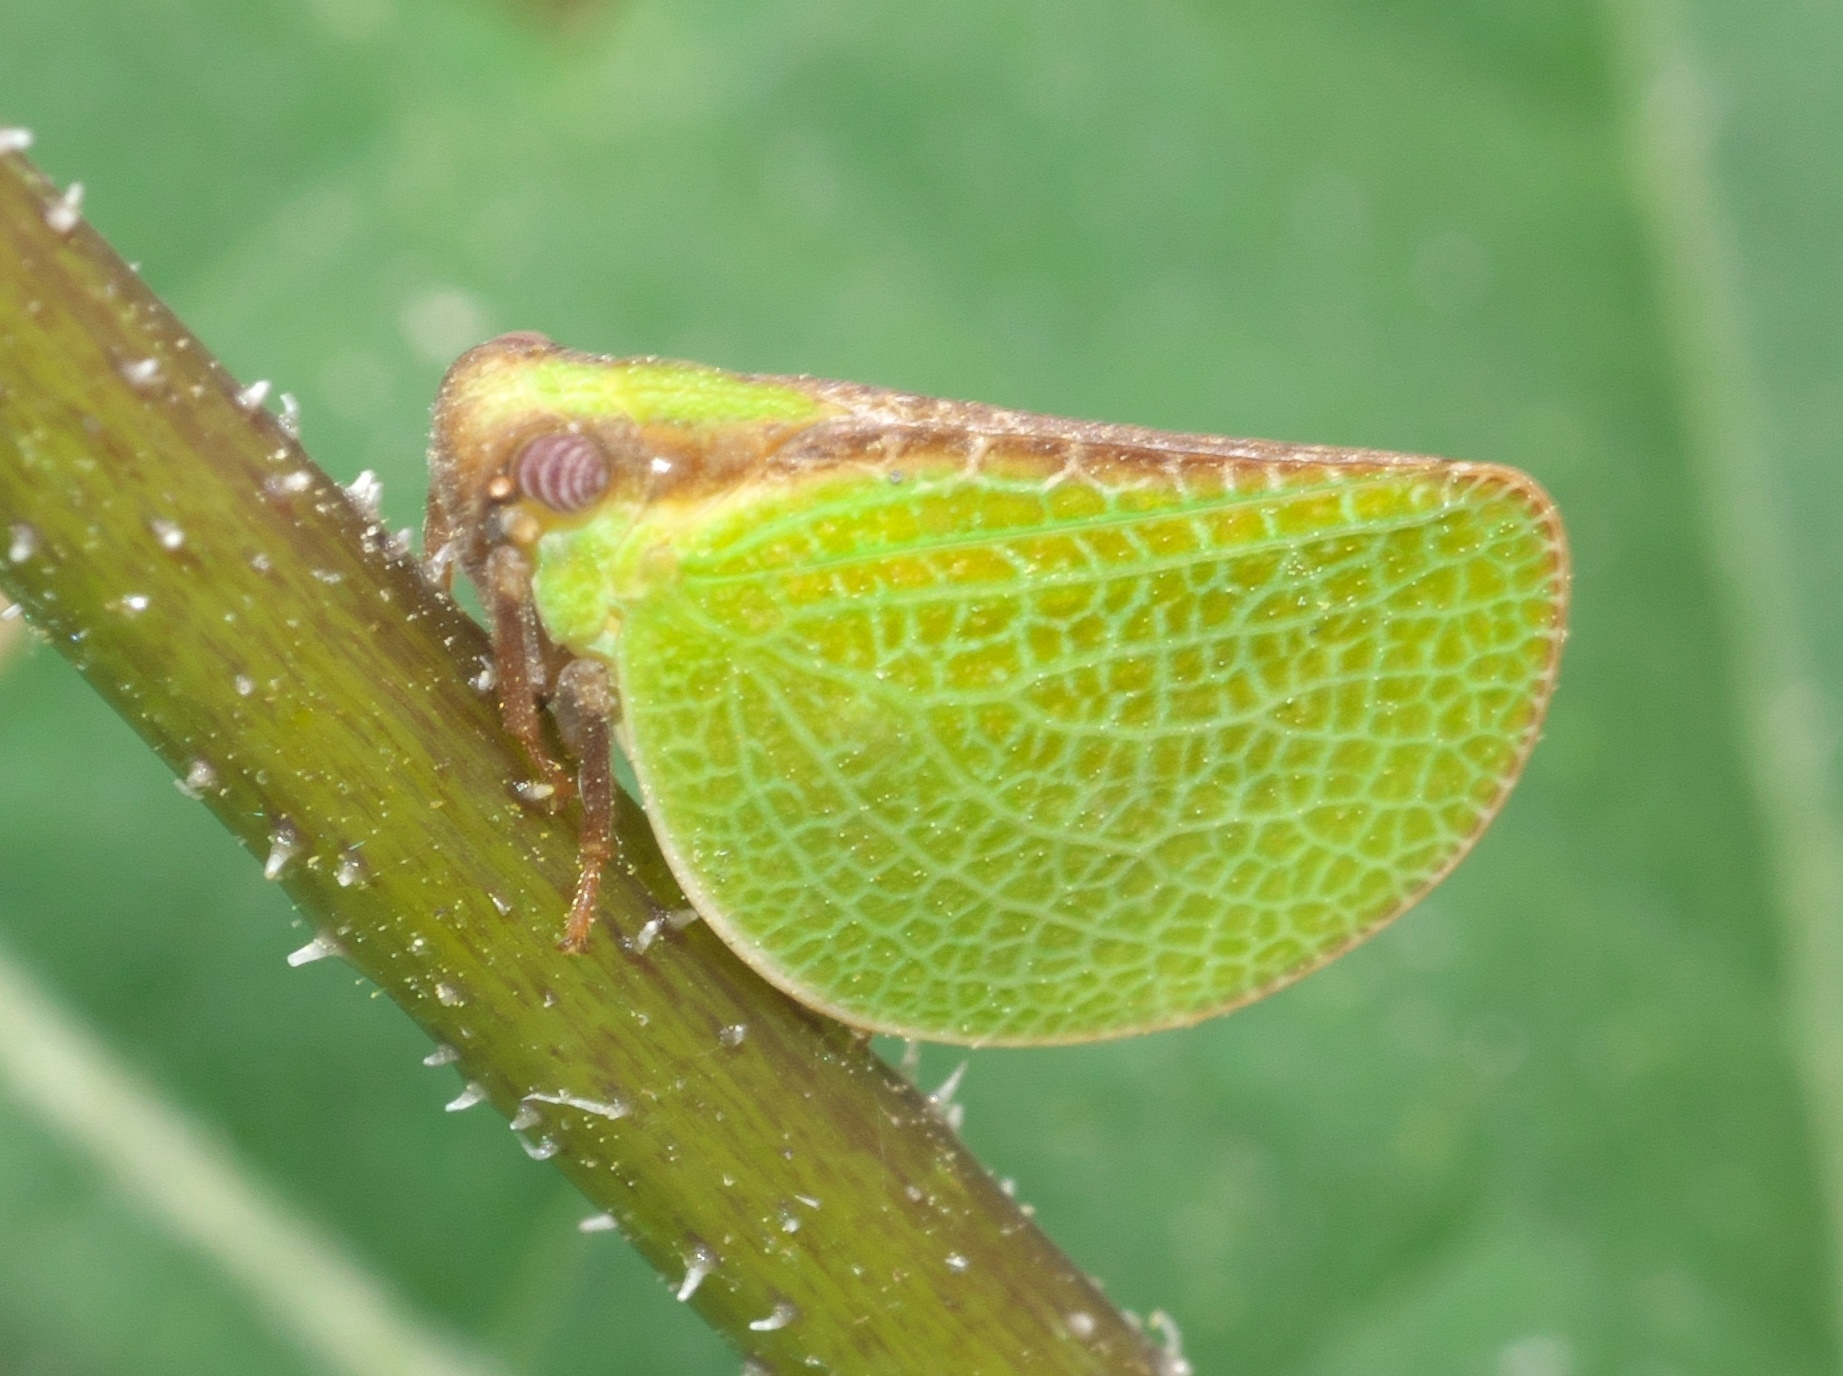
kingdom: Animalia
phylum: Arthropoda
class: Insecta
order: Hemiptera
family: Acanaloniidae
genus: Acanalonia
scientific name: Acanalonia bivittata
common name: Two-striped planthopper
